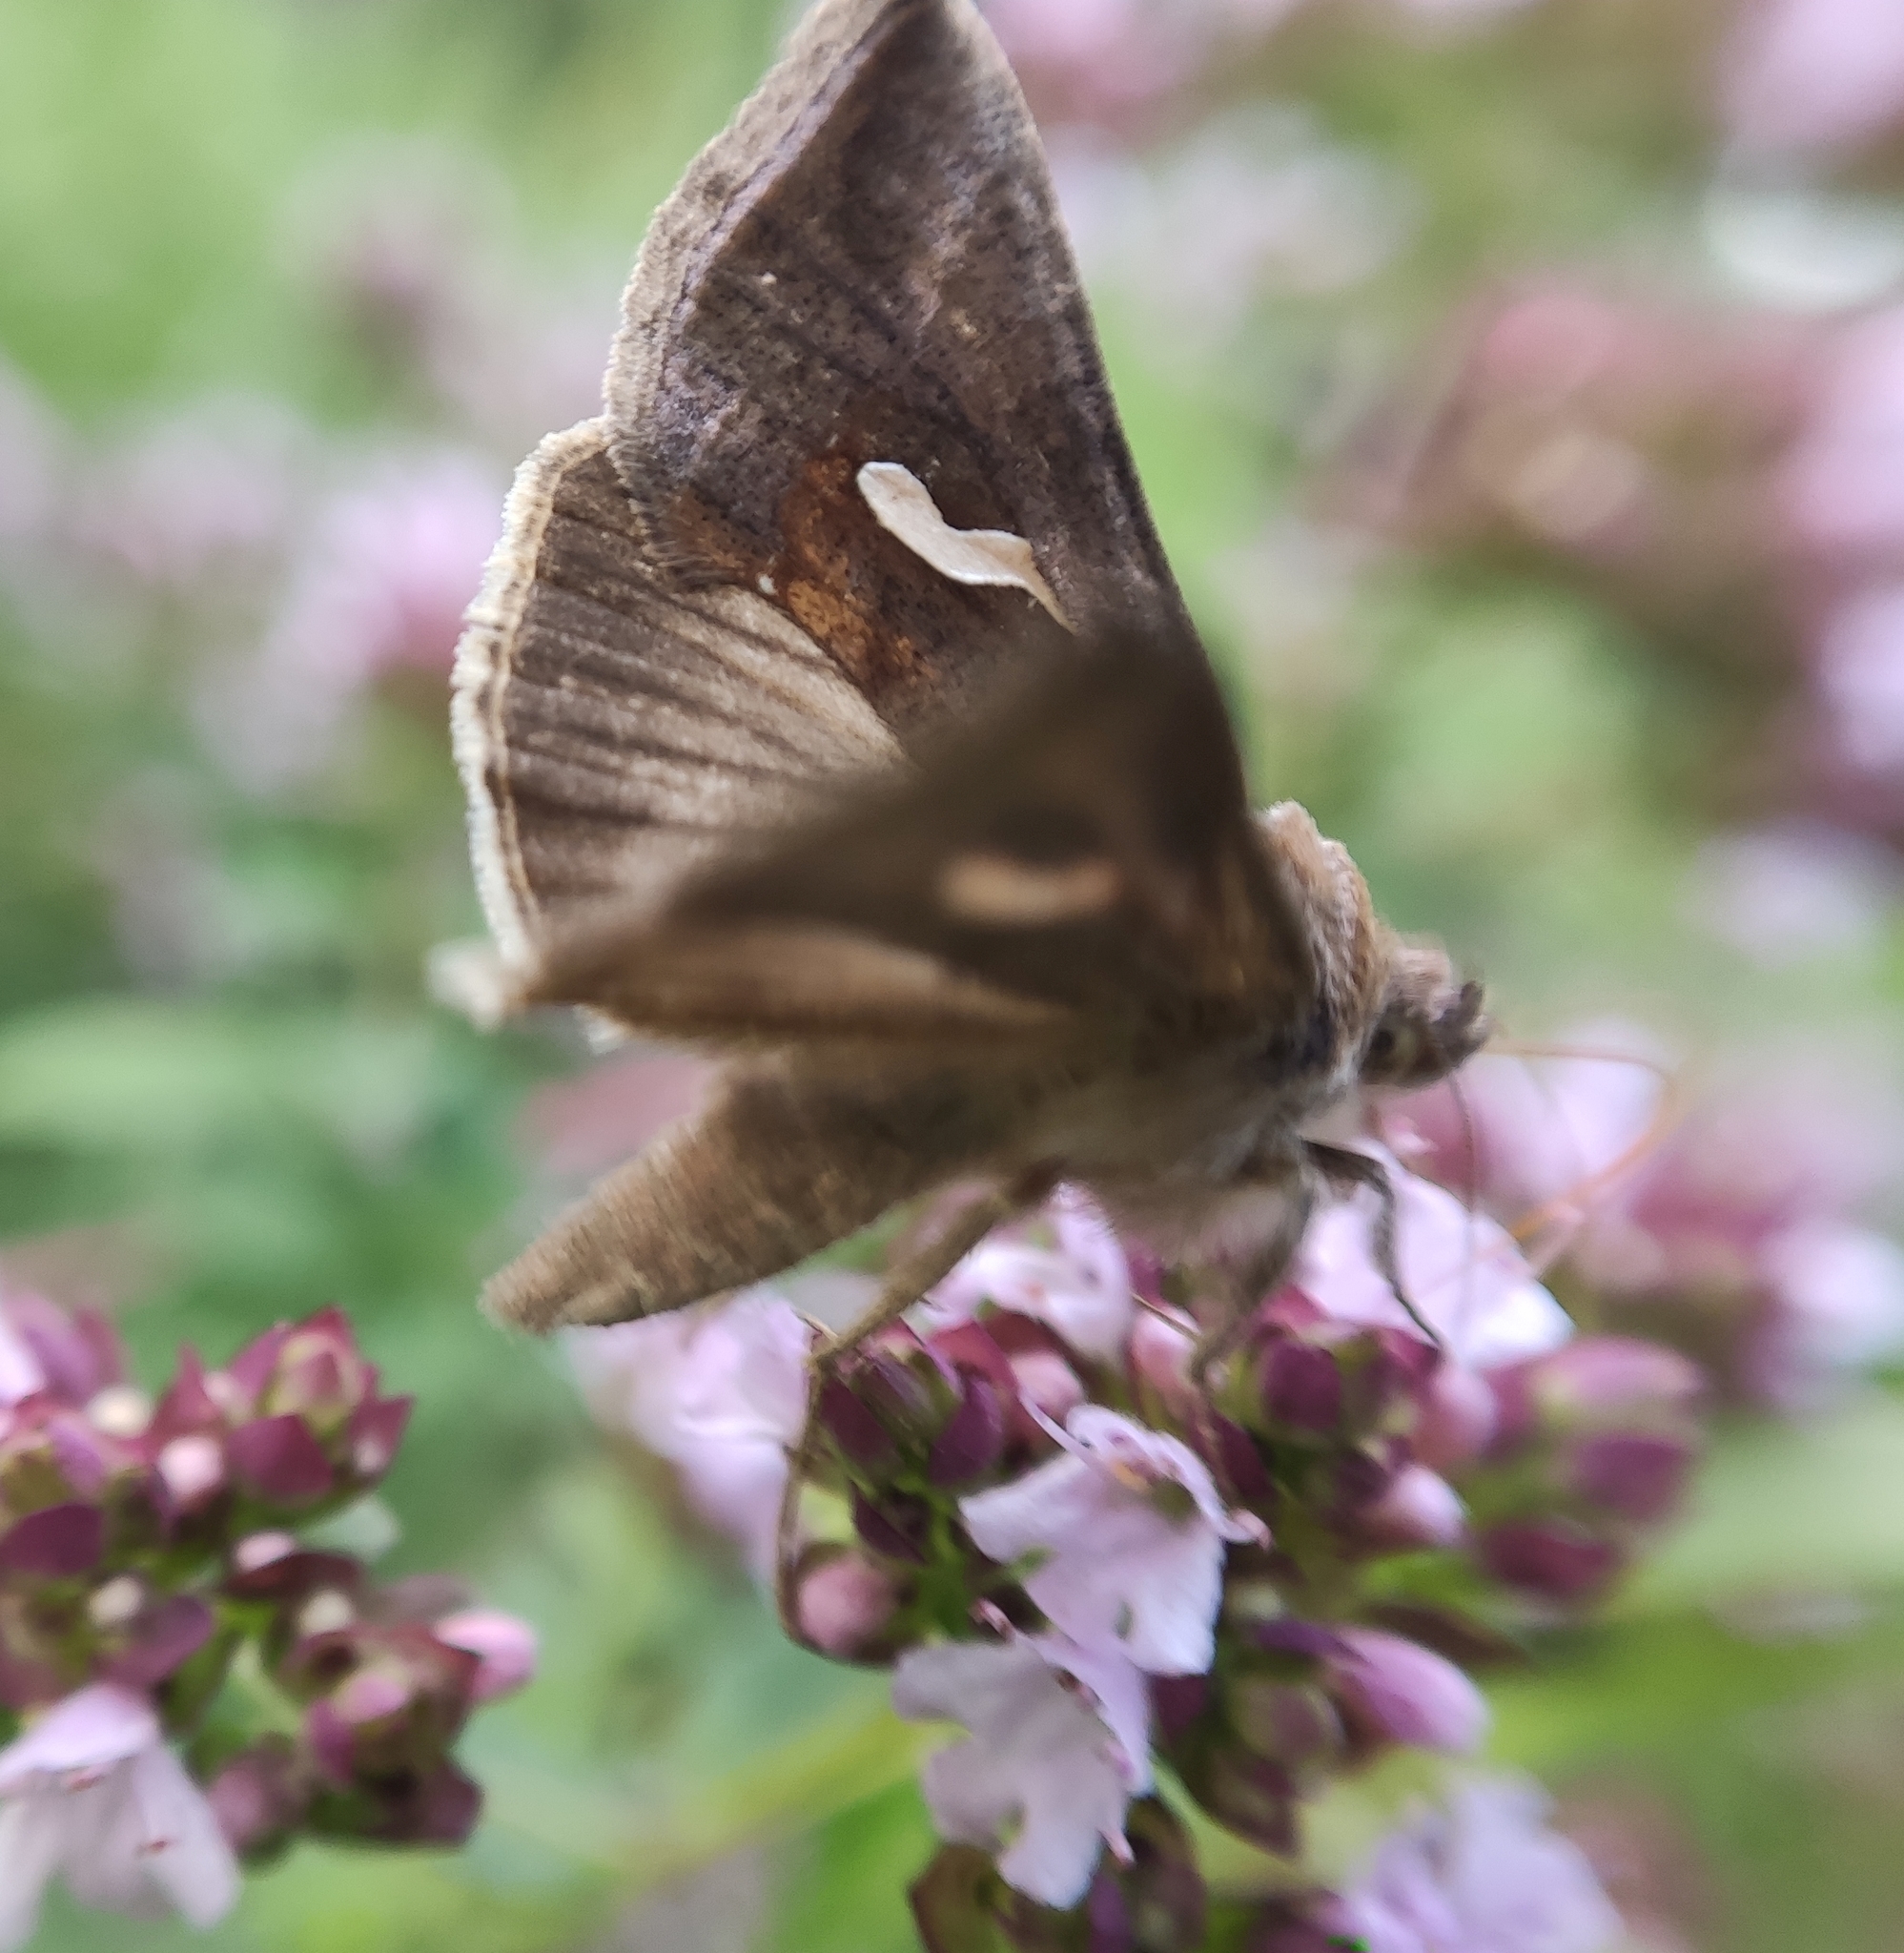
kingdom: Animalia
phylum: Arthropoda
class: Insecta
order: Lepidoptera
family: Noctuidae
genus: Macdunnoughia
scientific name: Macdunnoughia confusa
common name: Dewick's plusia
